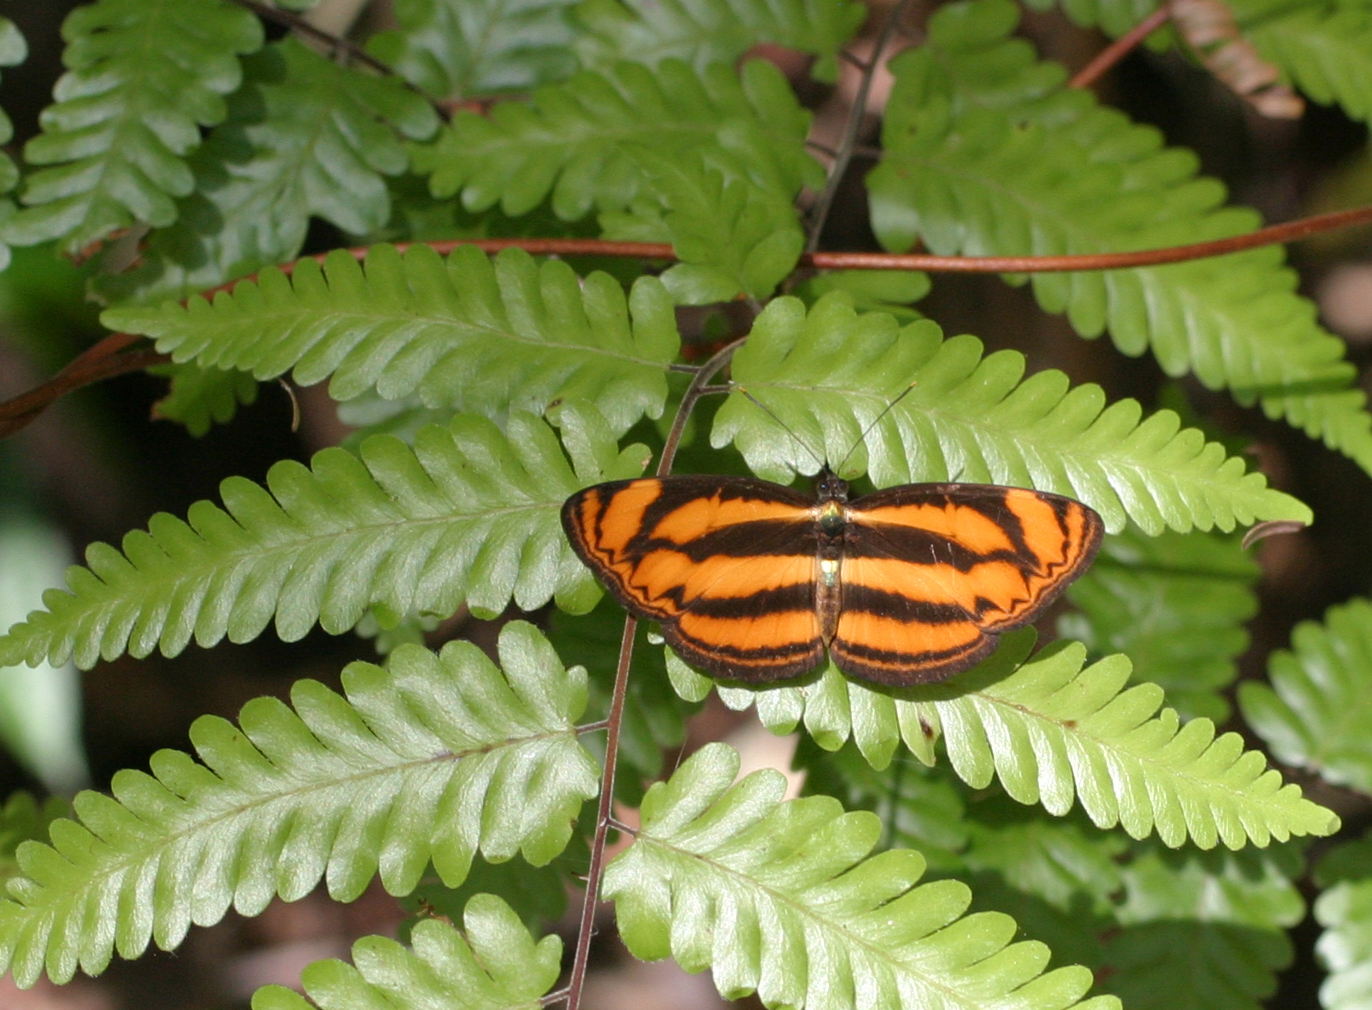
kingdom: Animalia
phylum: Arthropoda
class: Insecta
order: Lepidoptera
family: Nymphalidae
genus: Lasippa
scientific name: Lasippa heliodore
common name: Burmese lascar
